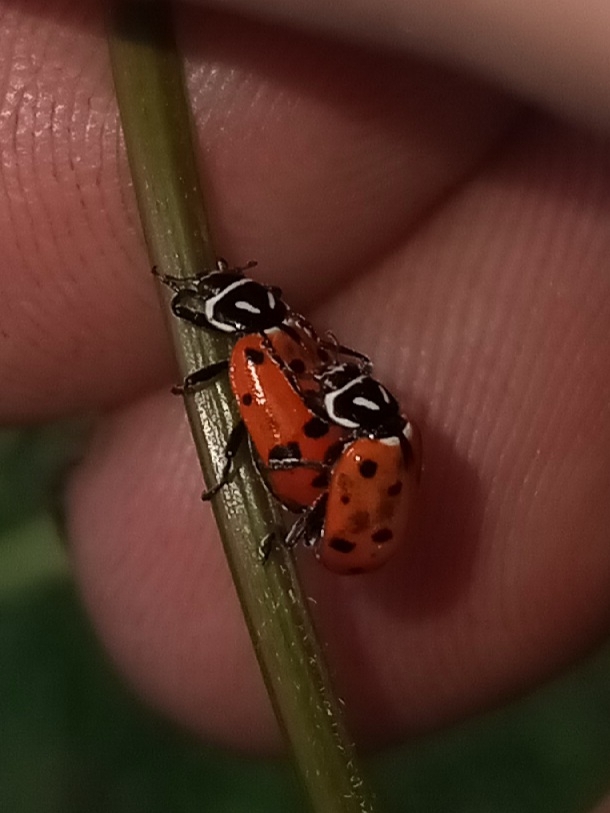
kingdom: Animalia
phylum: Arthropoda
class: Insecta
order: Coleoptera
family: Coccinellidae
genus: Hippodamia
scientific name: Hippodamia convergens
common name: Convergent lady beetle
